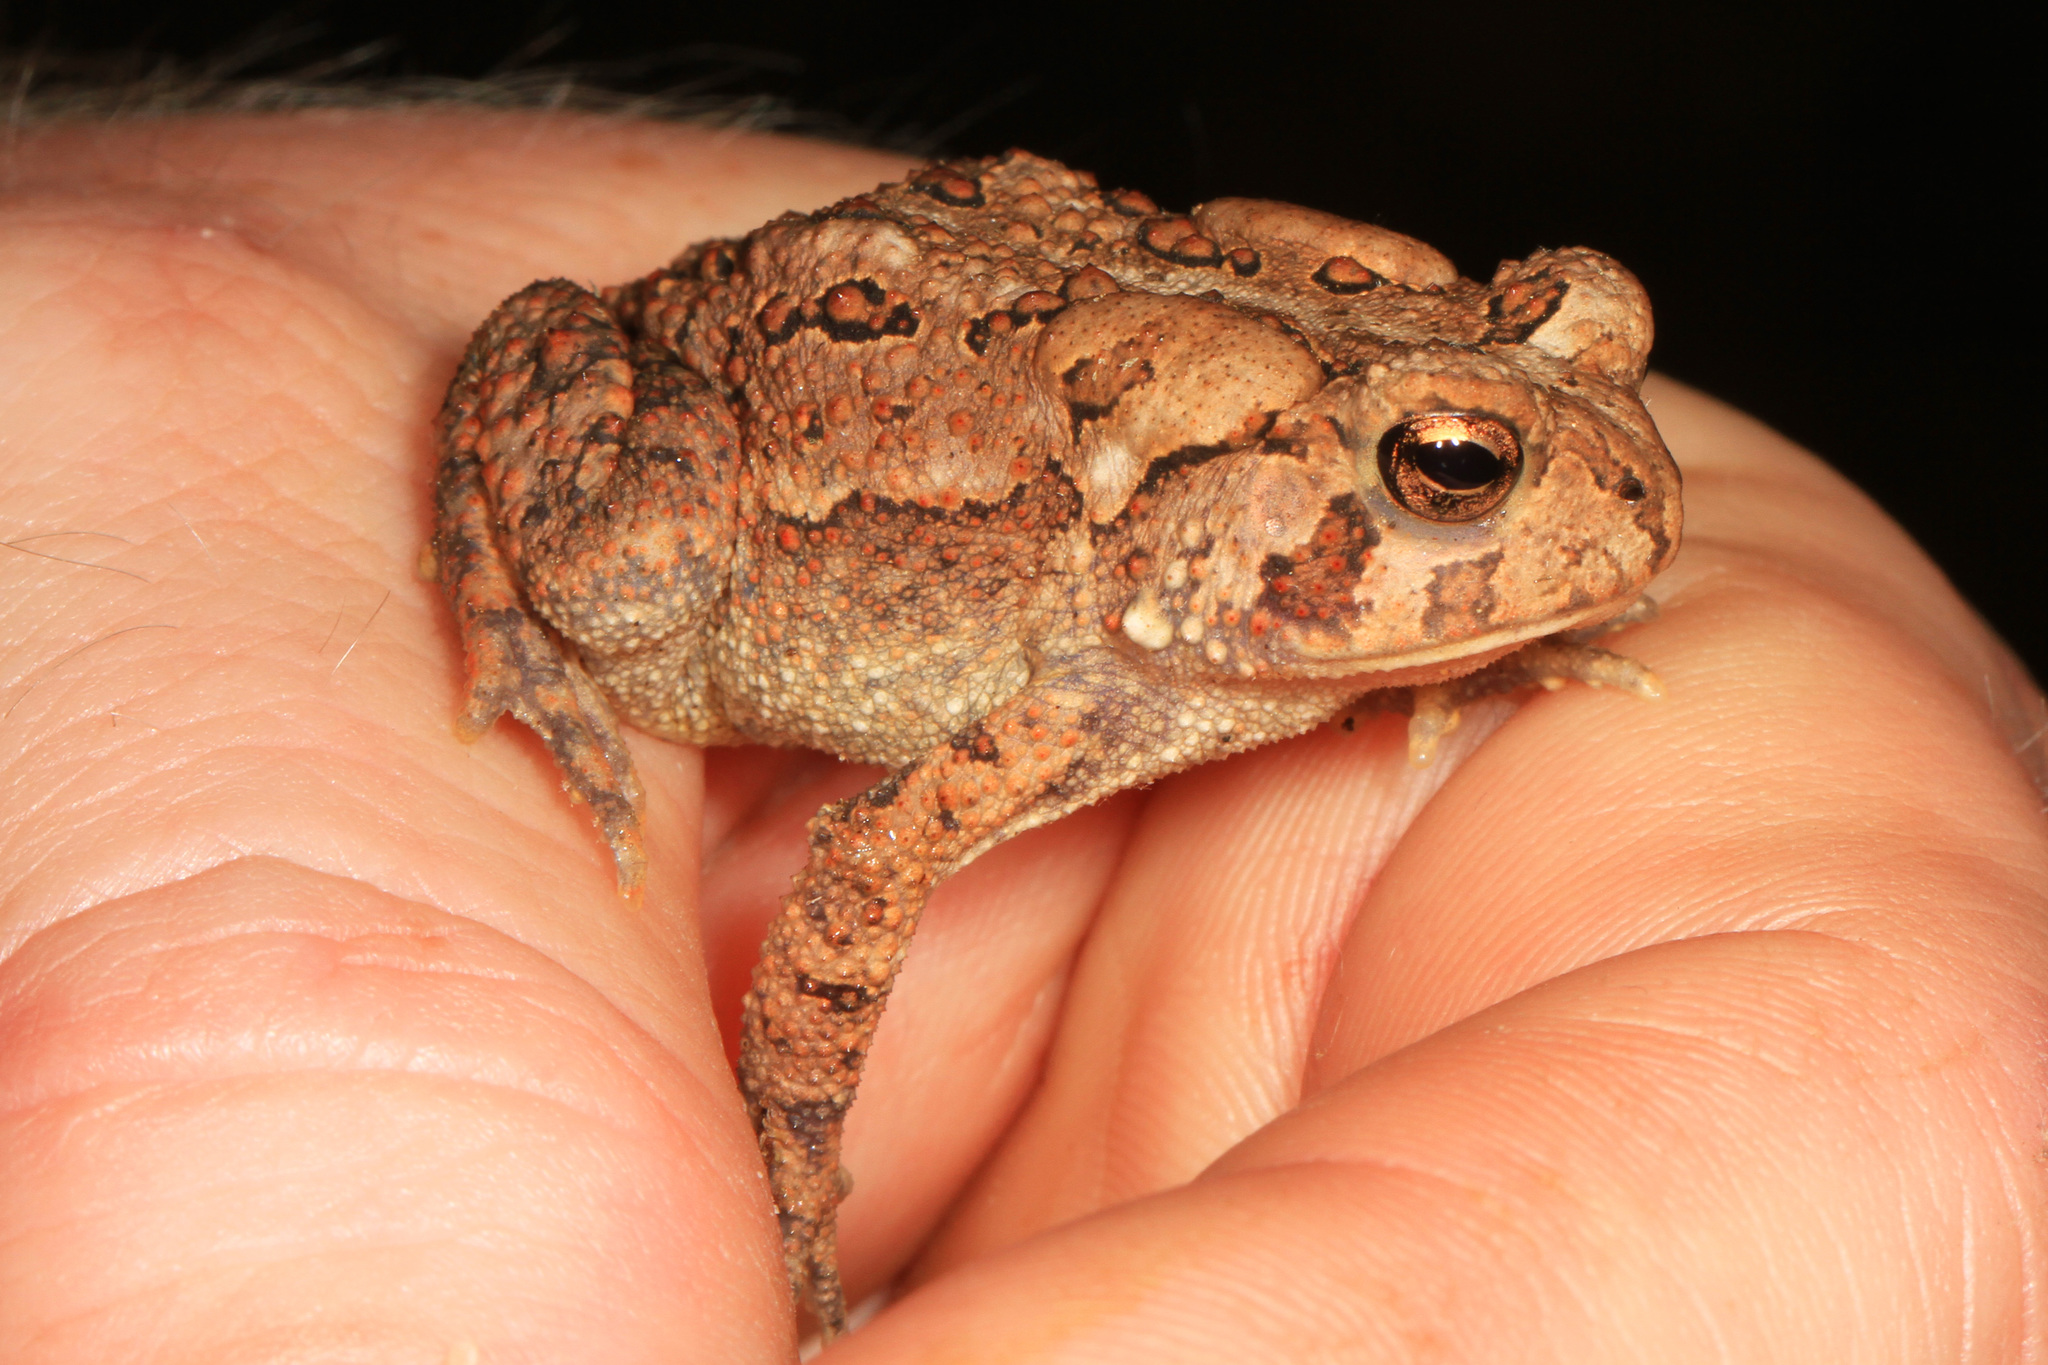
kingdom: Animalia
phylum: Chordata
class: Amphibia
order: Anura
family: Bufonidae
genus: Anaxyrus
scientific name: Anaxyrus americanus
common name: American toad
